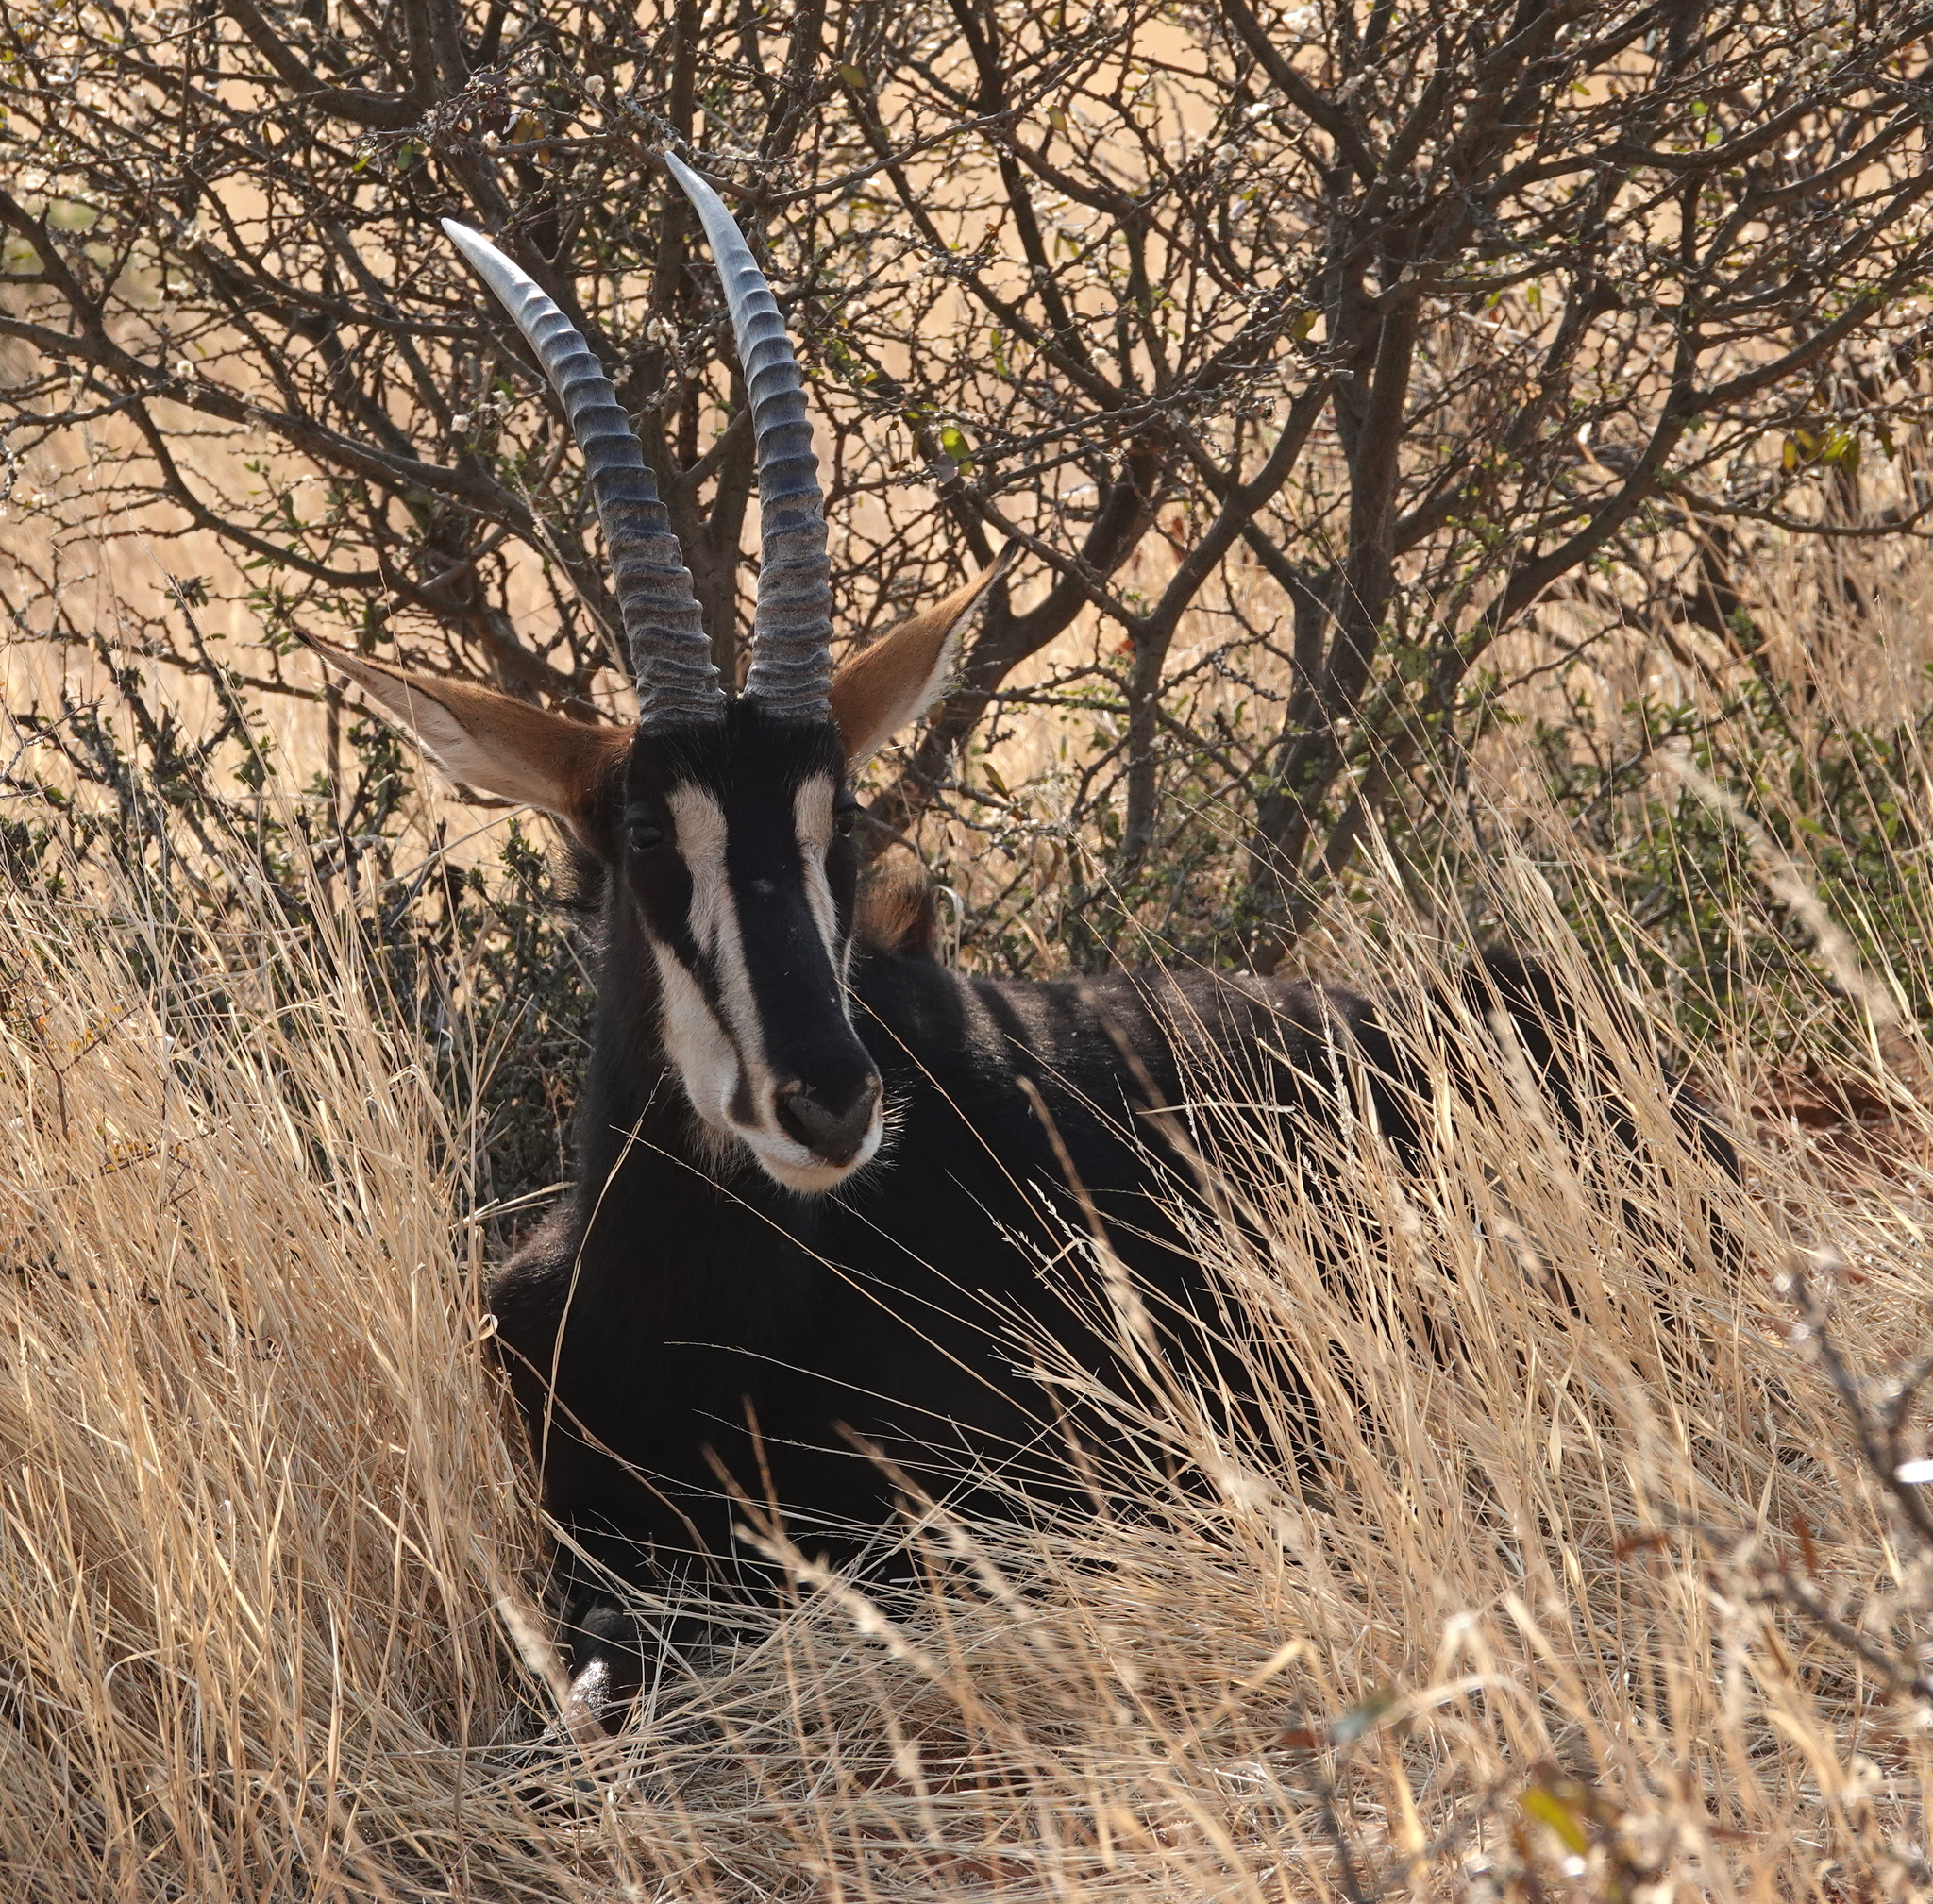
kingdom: Animalia
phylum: Chordata
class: Mammalia
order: Artiodactyla
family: Bovidae
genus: Hippotragus
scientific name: Hippotragus niger
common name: Sable antelope
